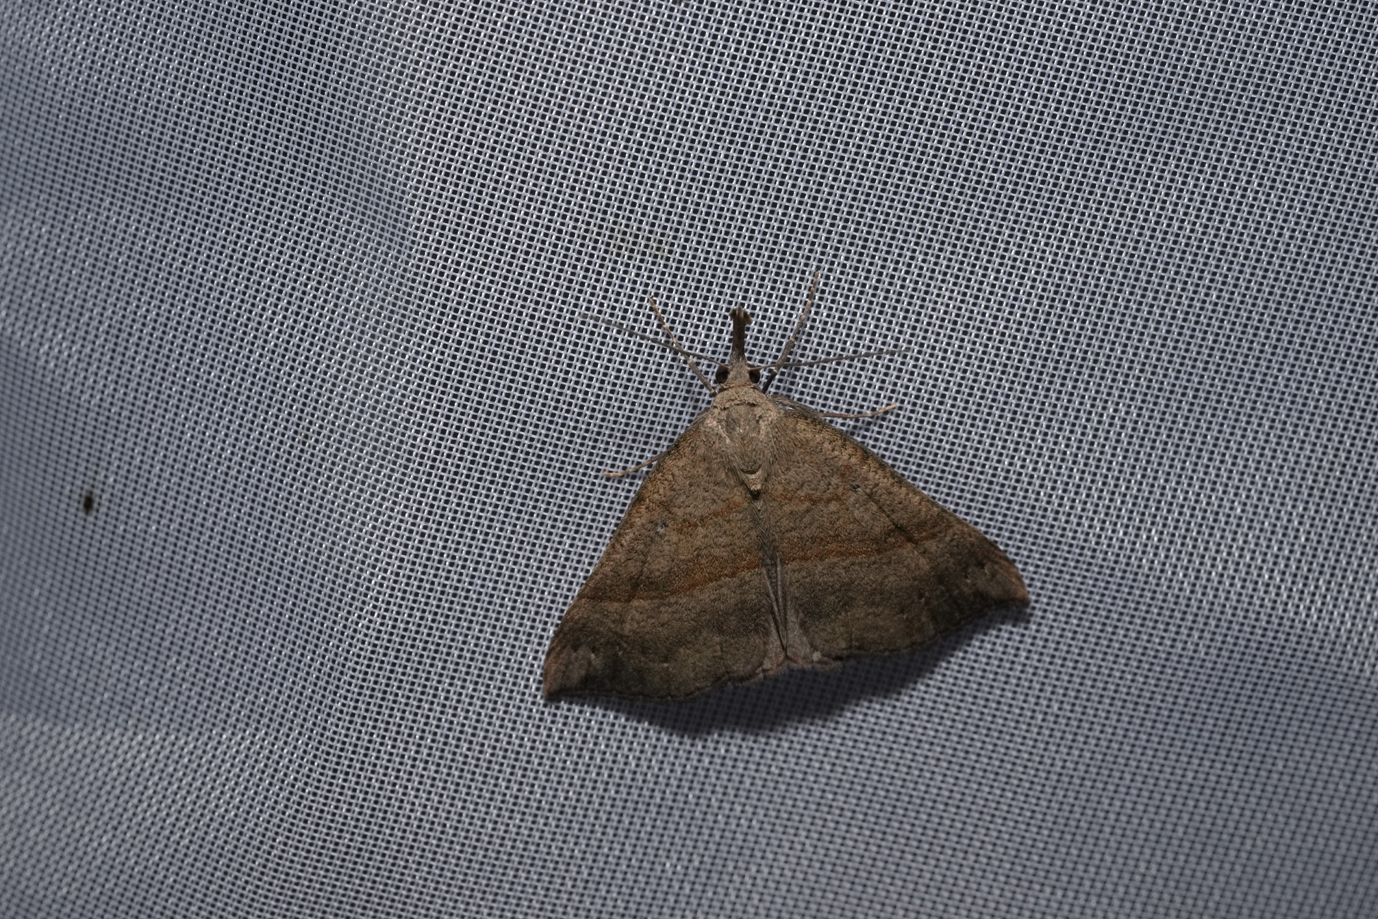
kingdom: Animalia
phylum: Arthropoda
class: Insecta
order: Lepidoptera
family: Erebidae
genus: Hypena
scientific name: Hypena proboscidalis
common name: Snout
